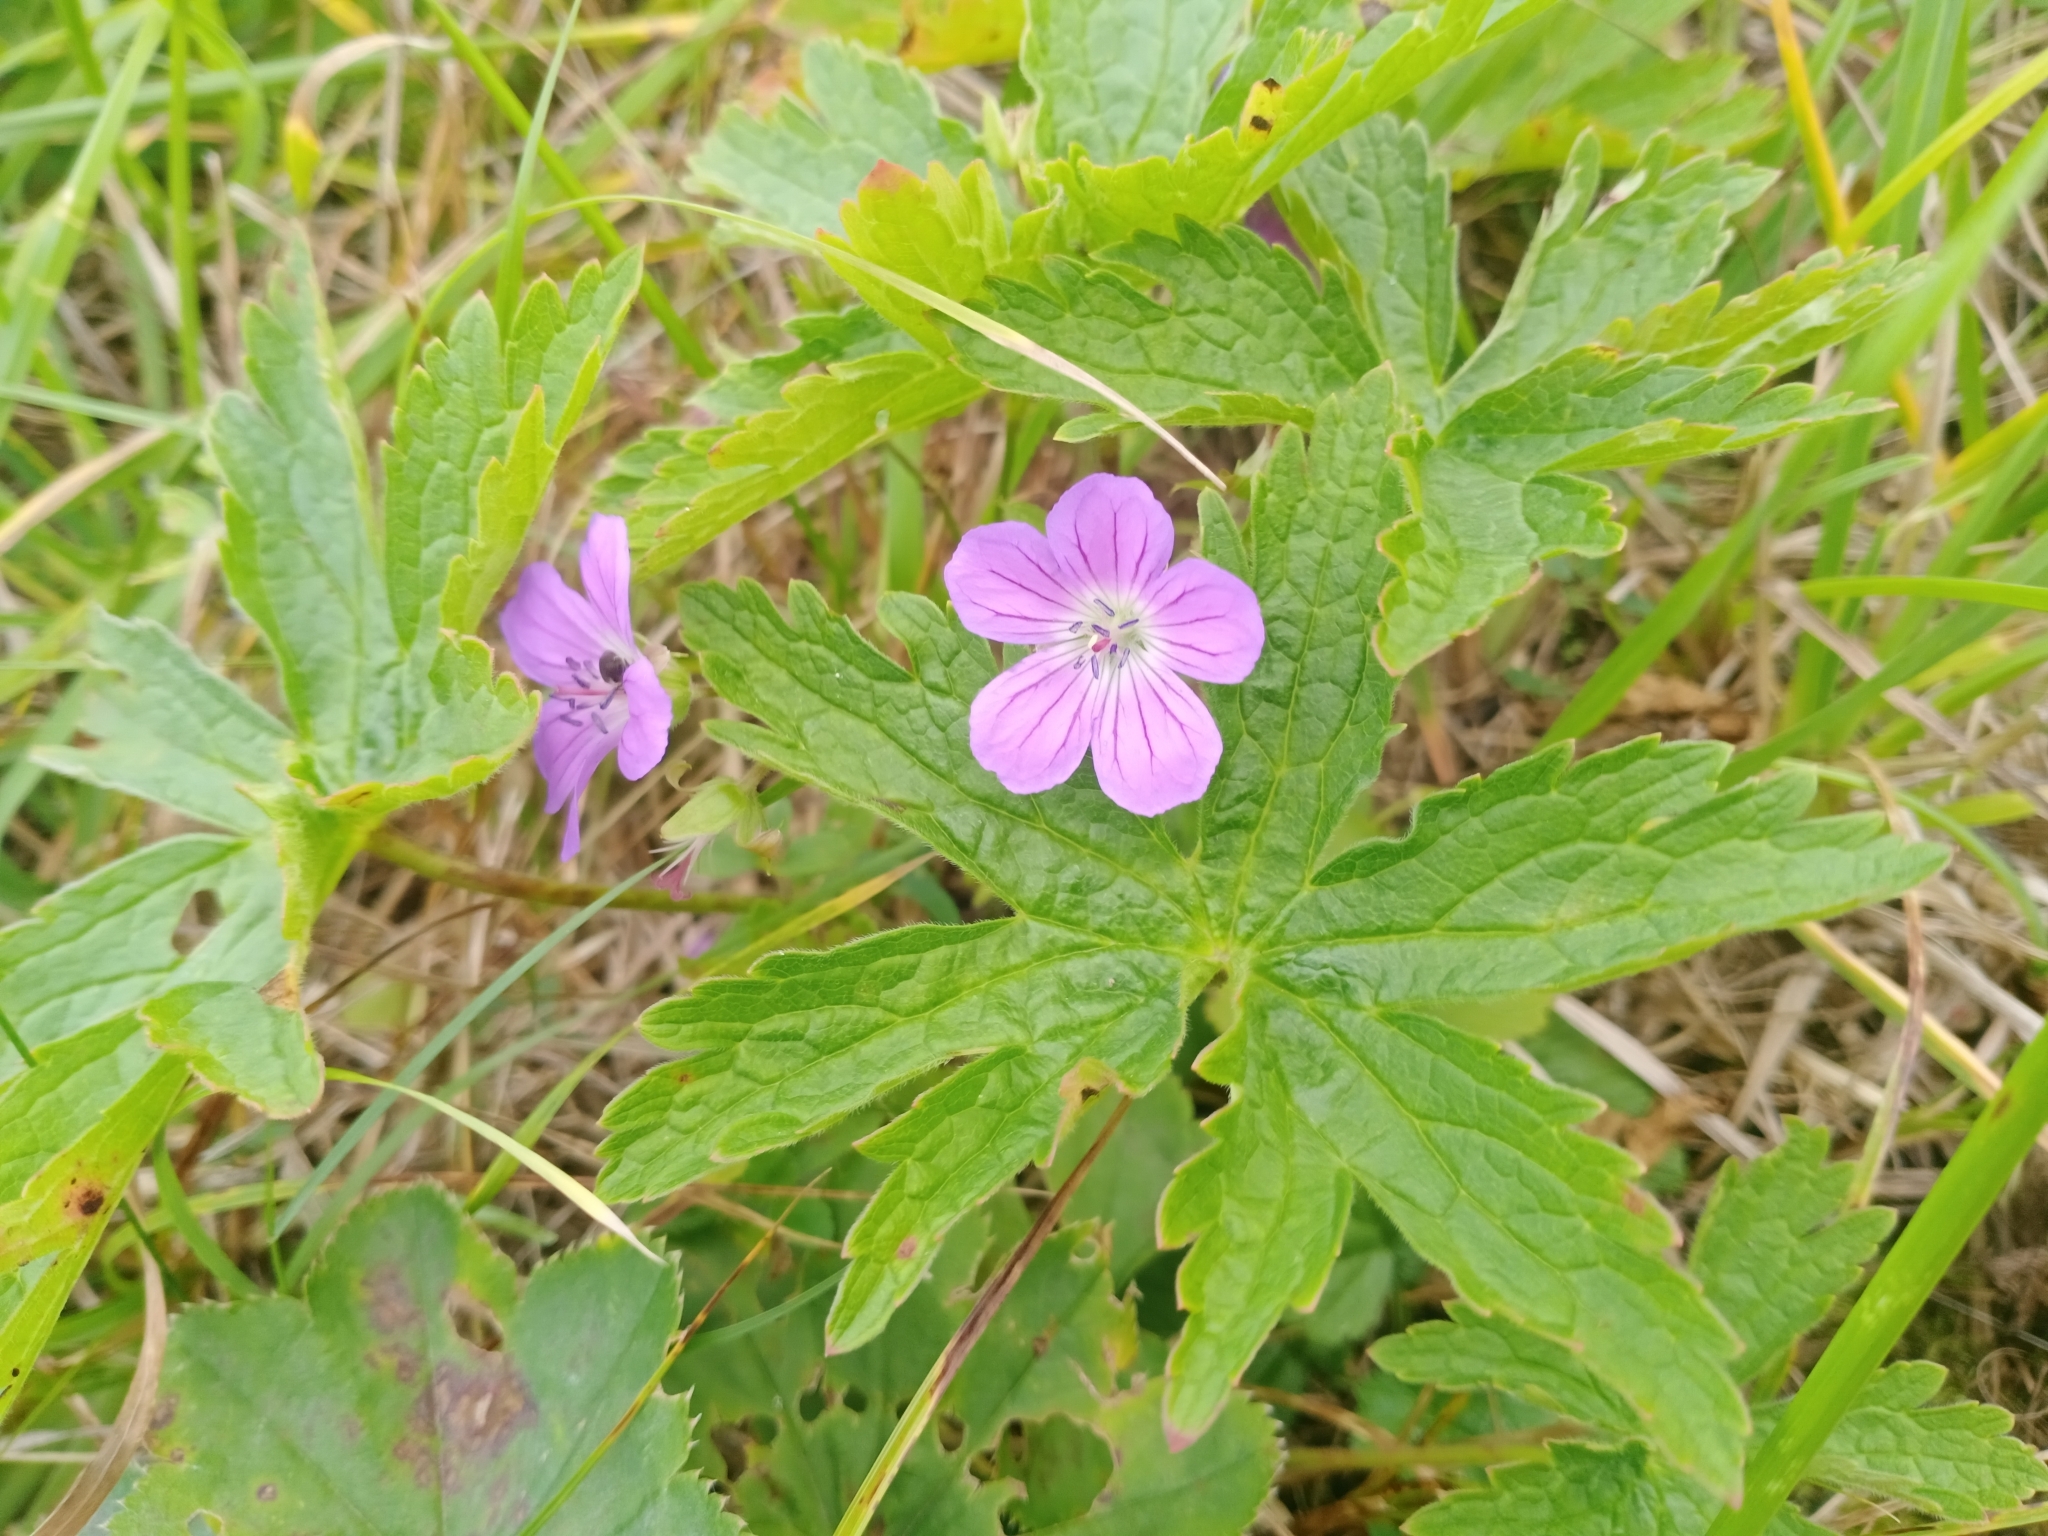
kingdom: Plantae
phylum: Tracheophyta
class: Magnoliopsida
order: Geraniales
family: Geraniaceae
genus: Geranium
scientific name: Geranium sylvaticum
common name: Wood crane's-bill
